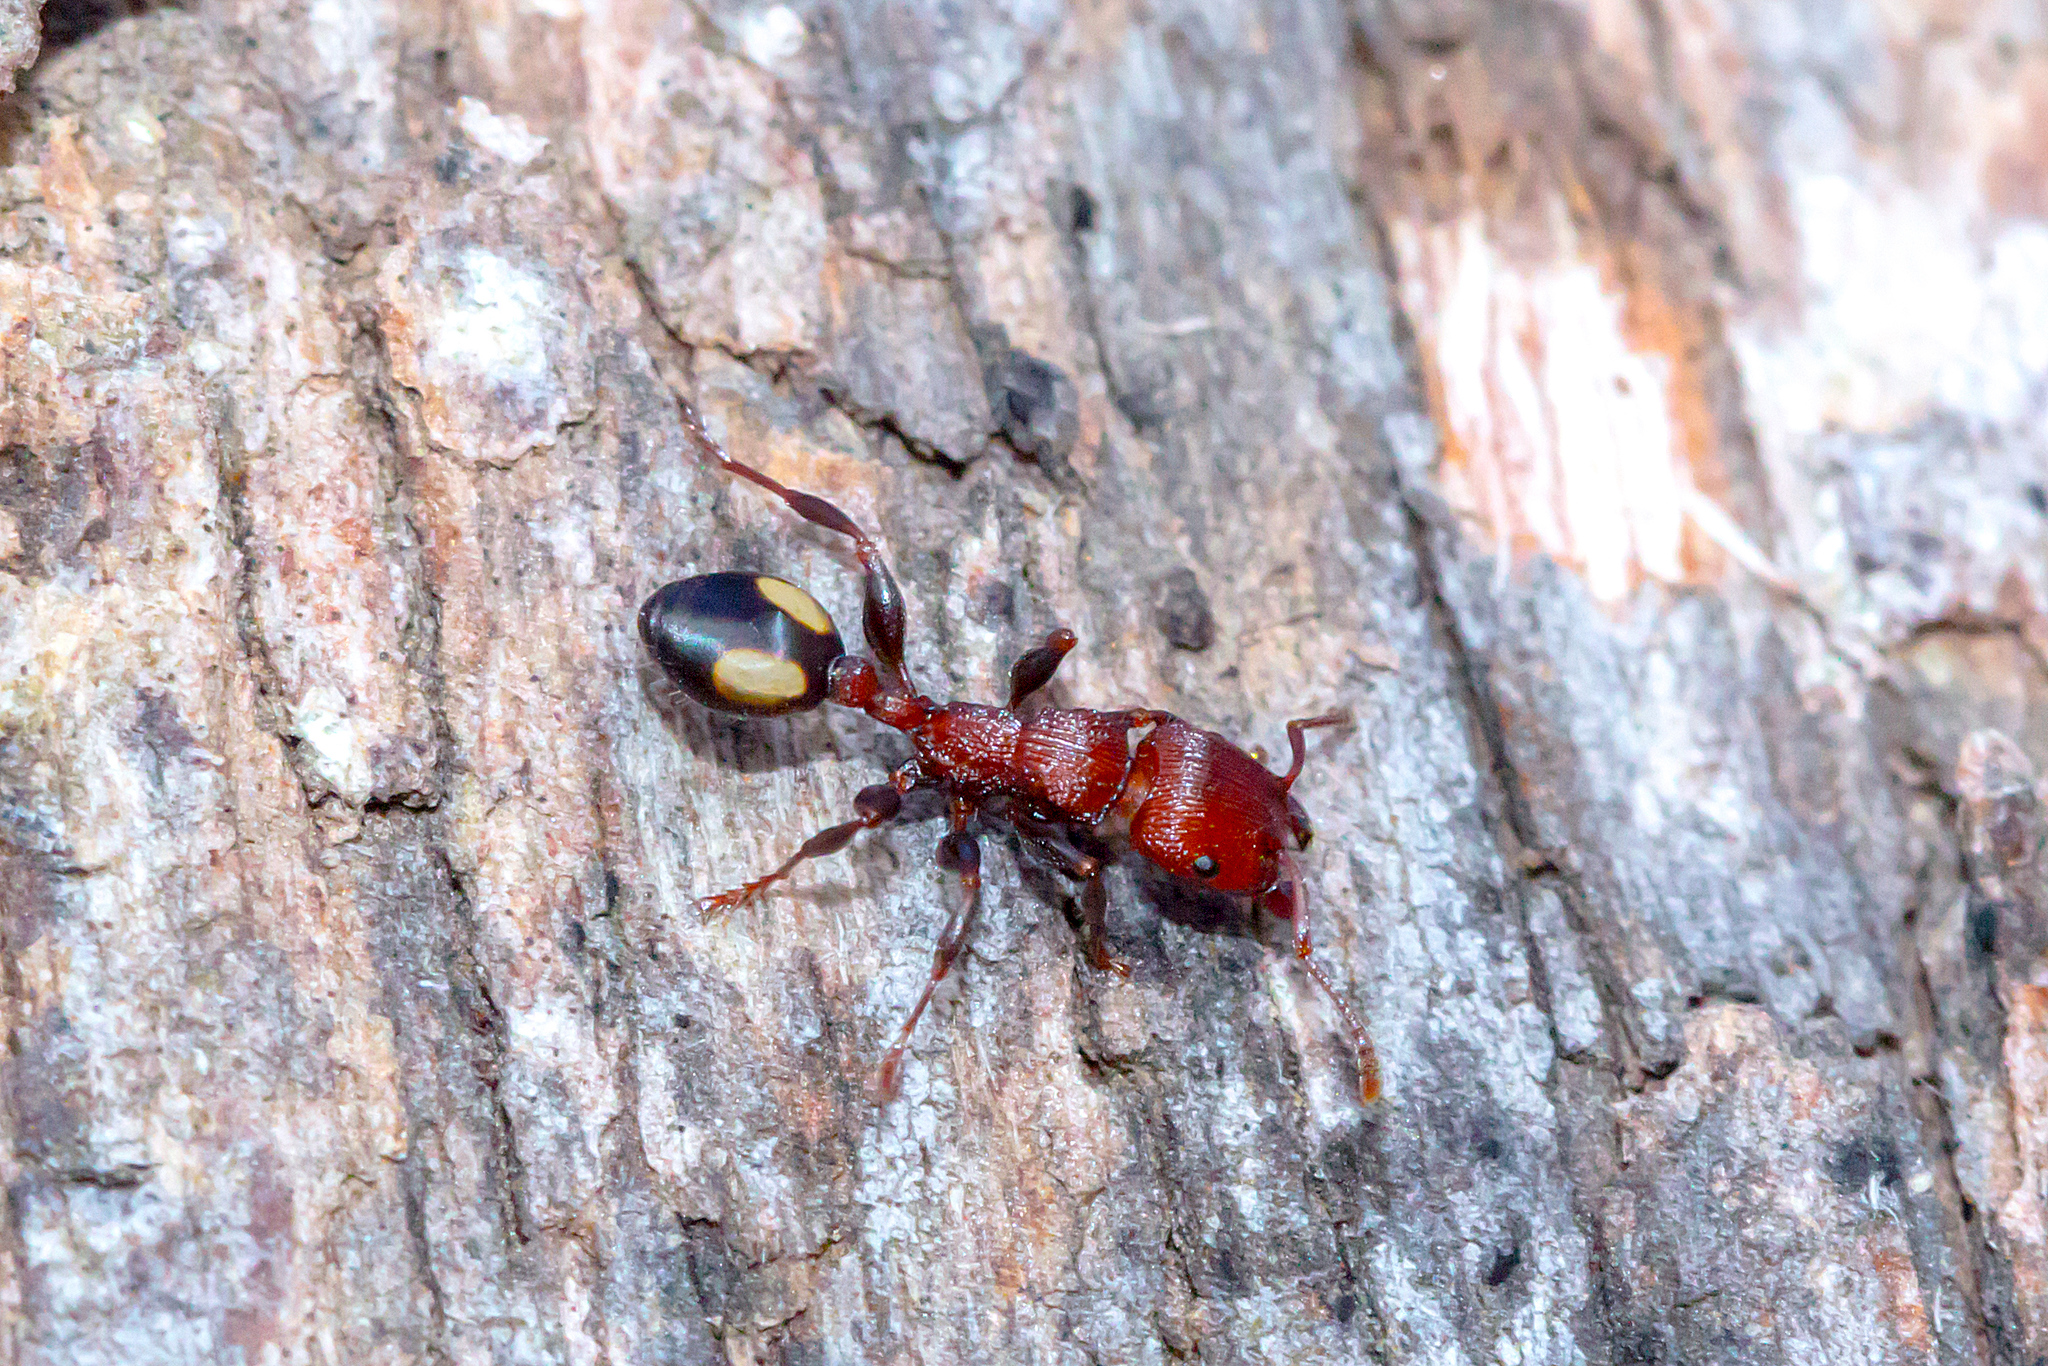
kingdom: Animalia
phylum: Arthropoda
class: Insecta
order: Hymenoptera
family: Formicidae
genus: Podomyrma
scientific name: Podomyrma adelaidae
